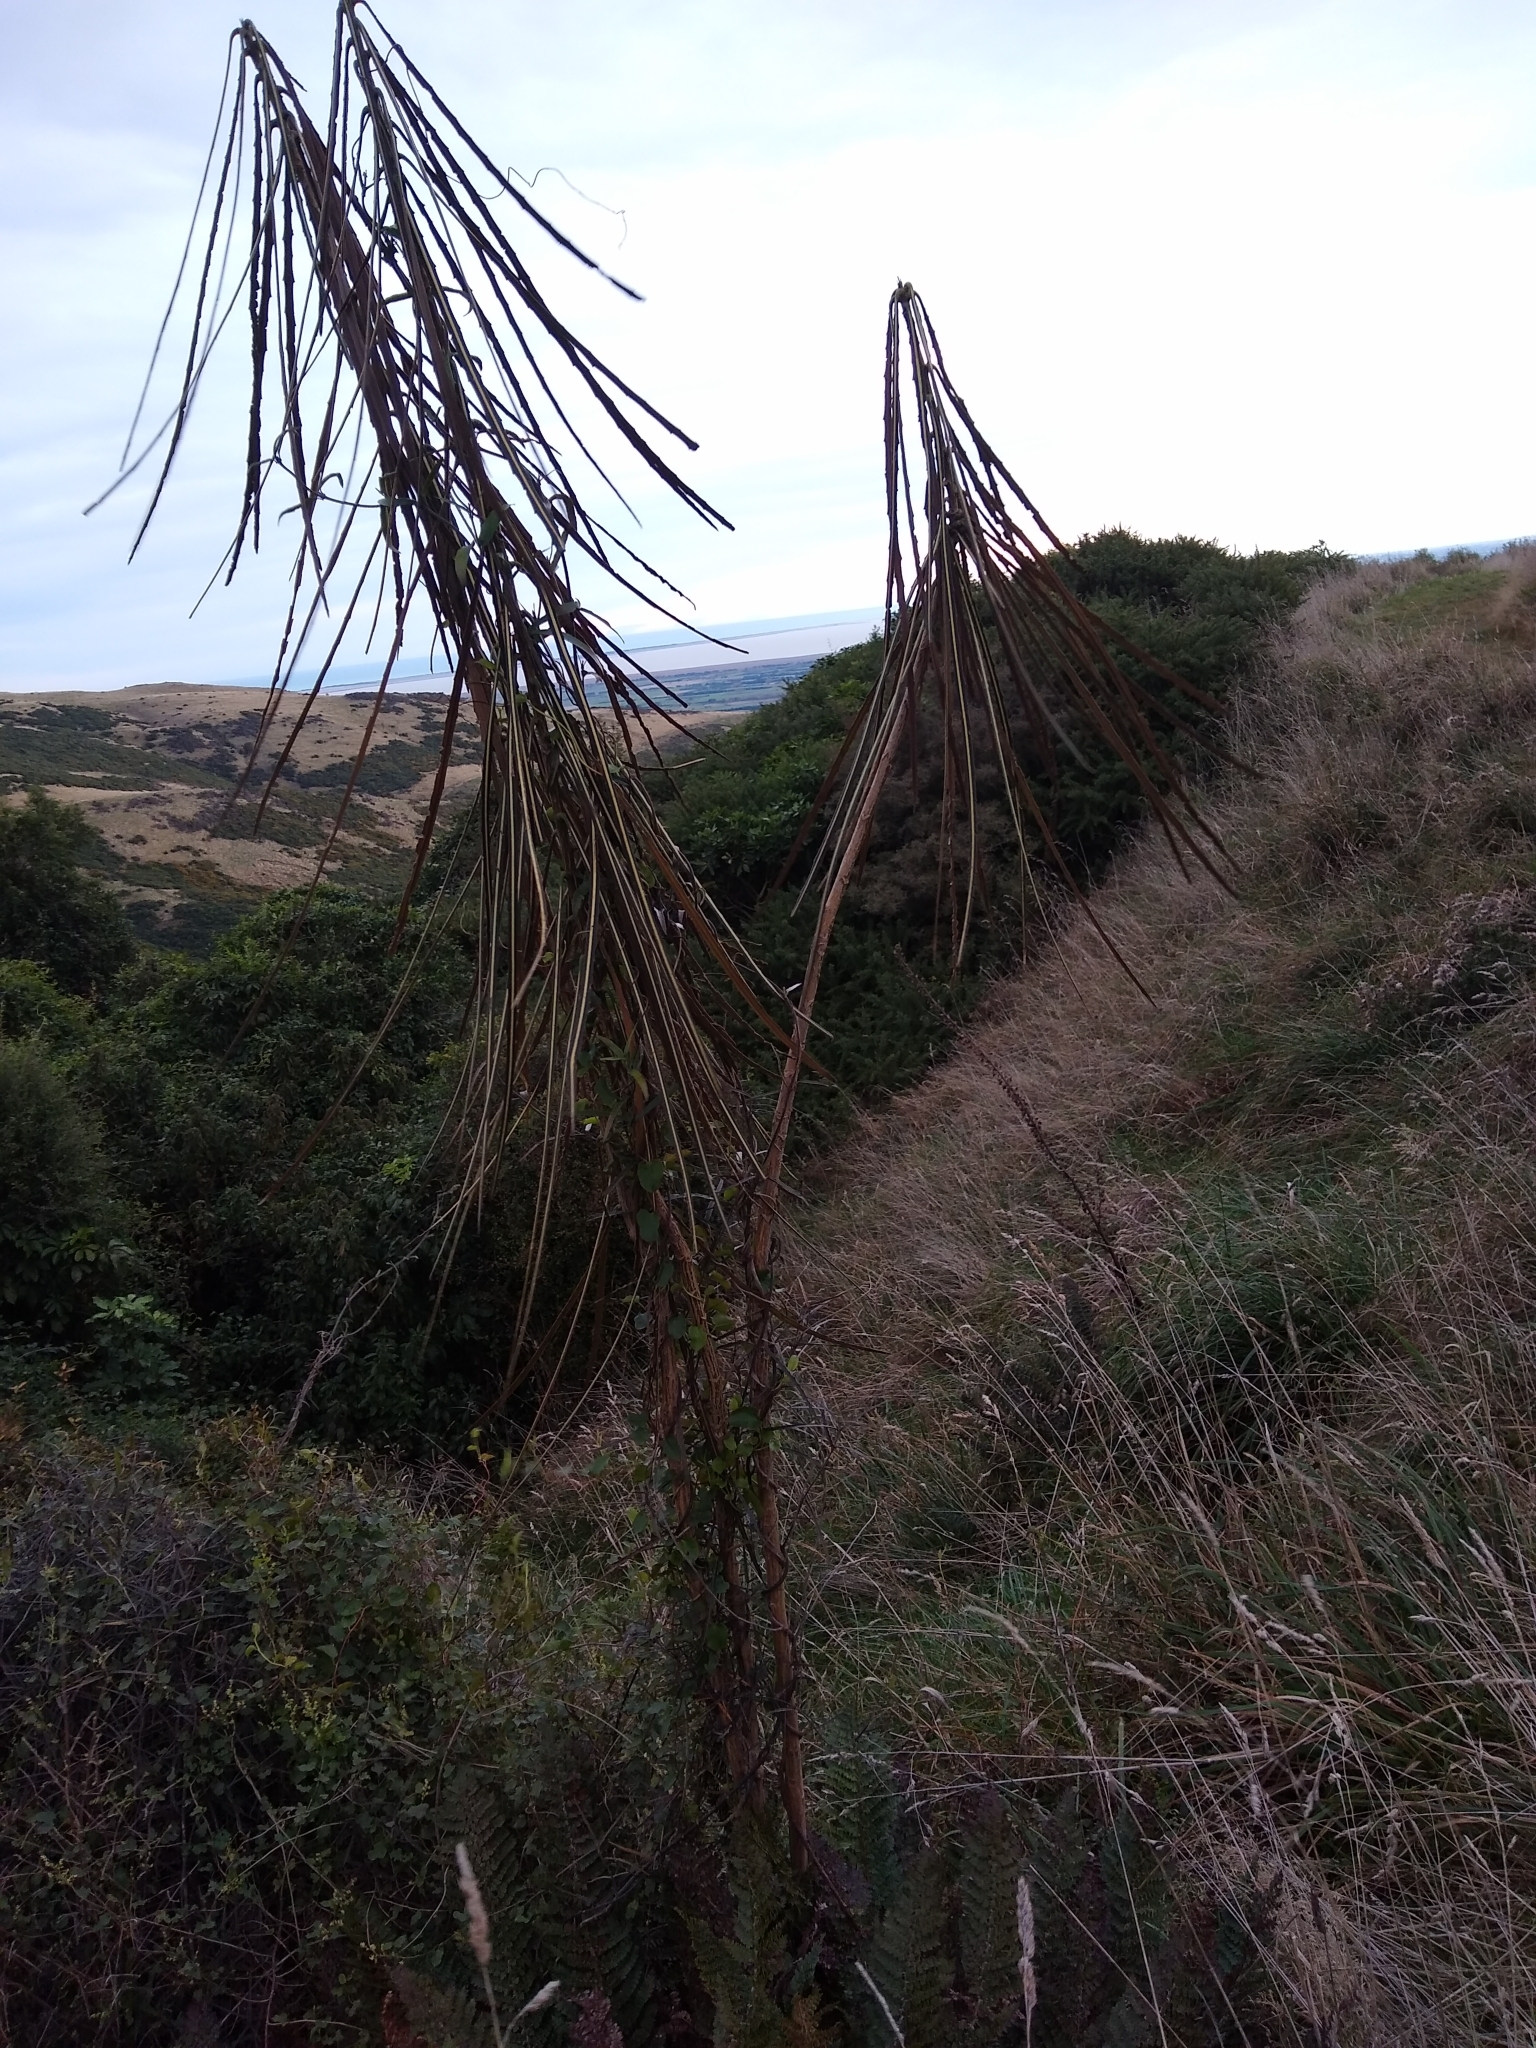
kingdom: Plantae
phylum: Tracheophyta
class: Magnoliopsida
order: Apiales
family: Araliaceae
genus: Pseudopanax
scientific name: Pseudopanax crassifolius
